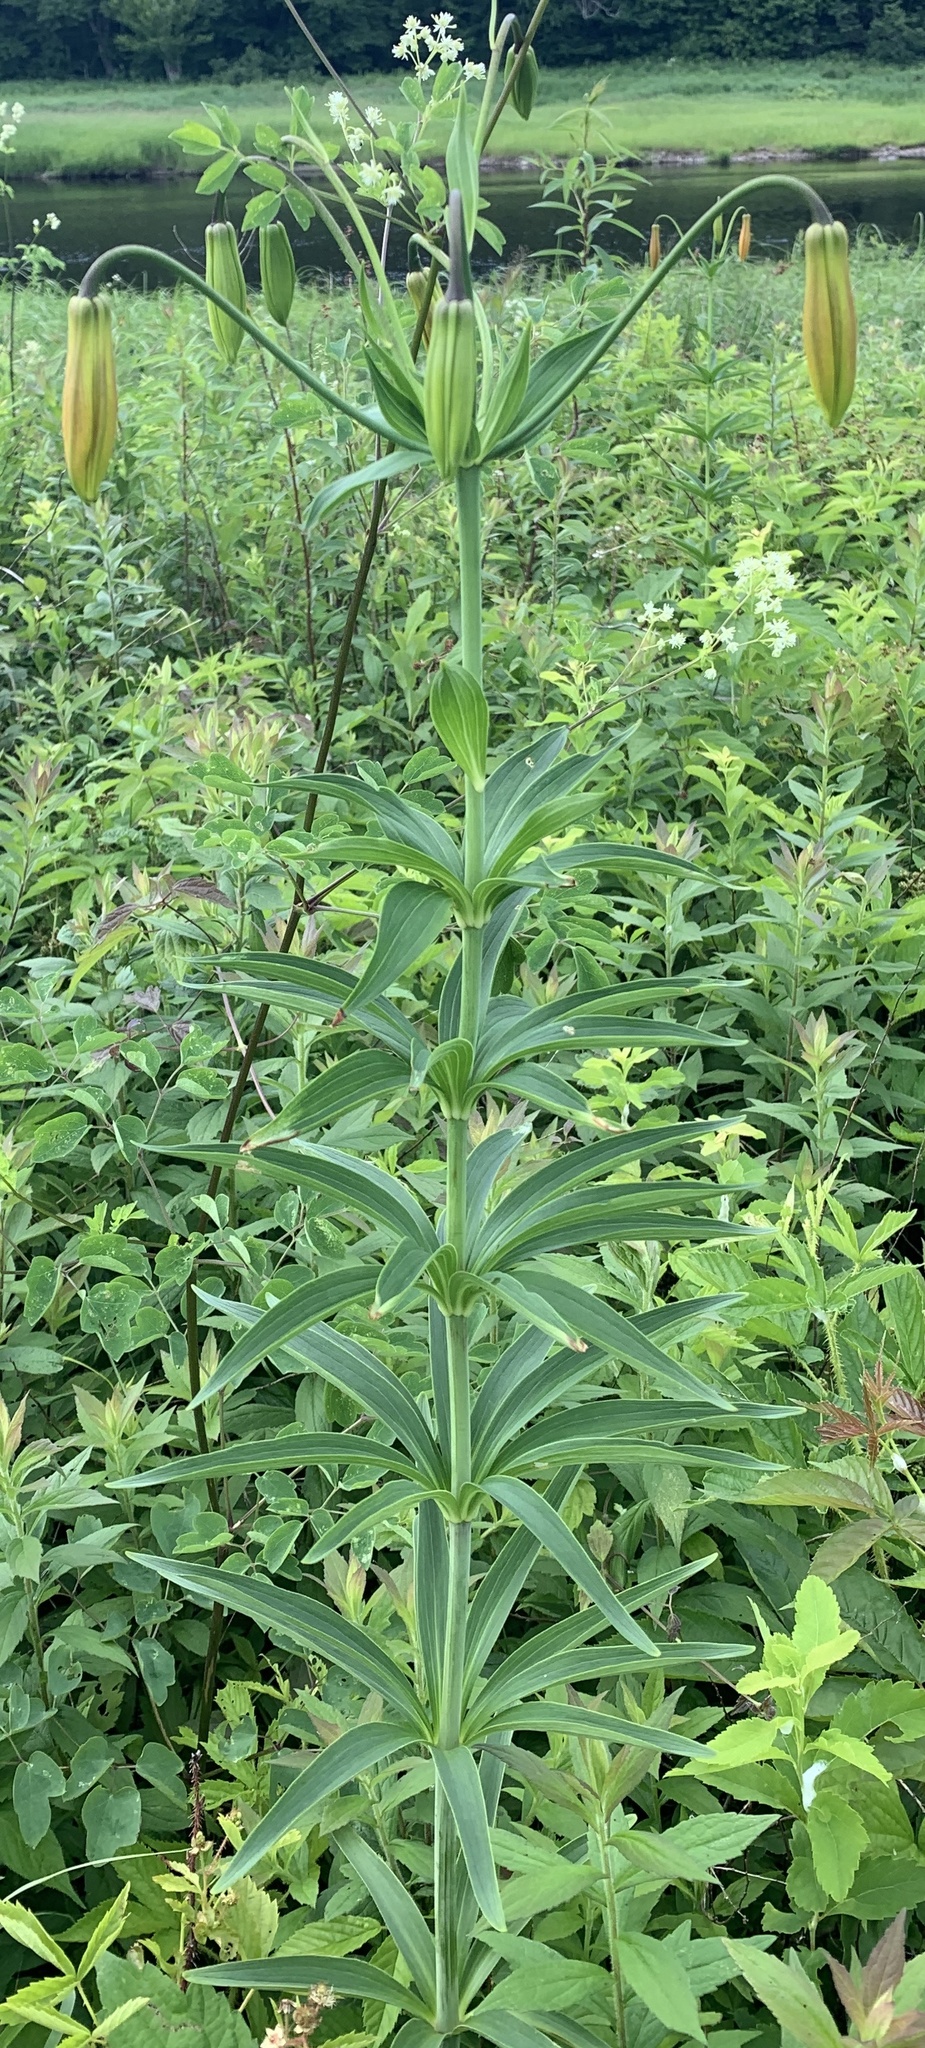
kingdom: Plantae
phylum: Tracheophyta
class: Liliopsida
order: Liliales
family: Liliaceae
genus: Lilium
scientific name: Lilium canadense
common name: Canada lily
